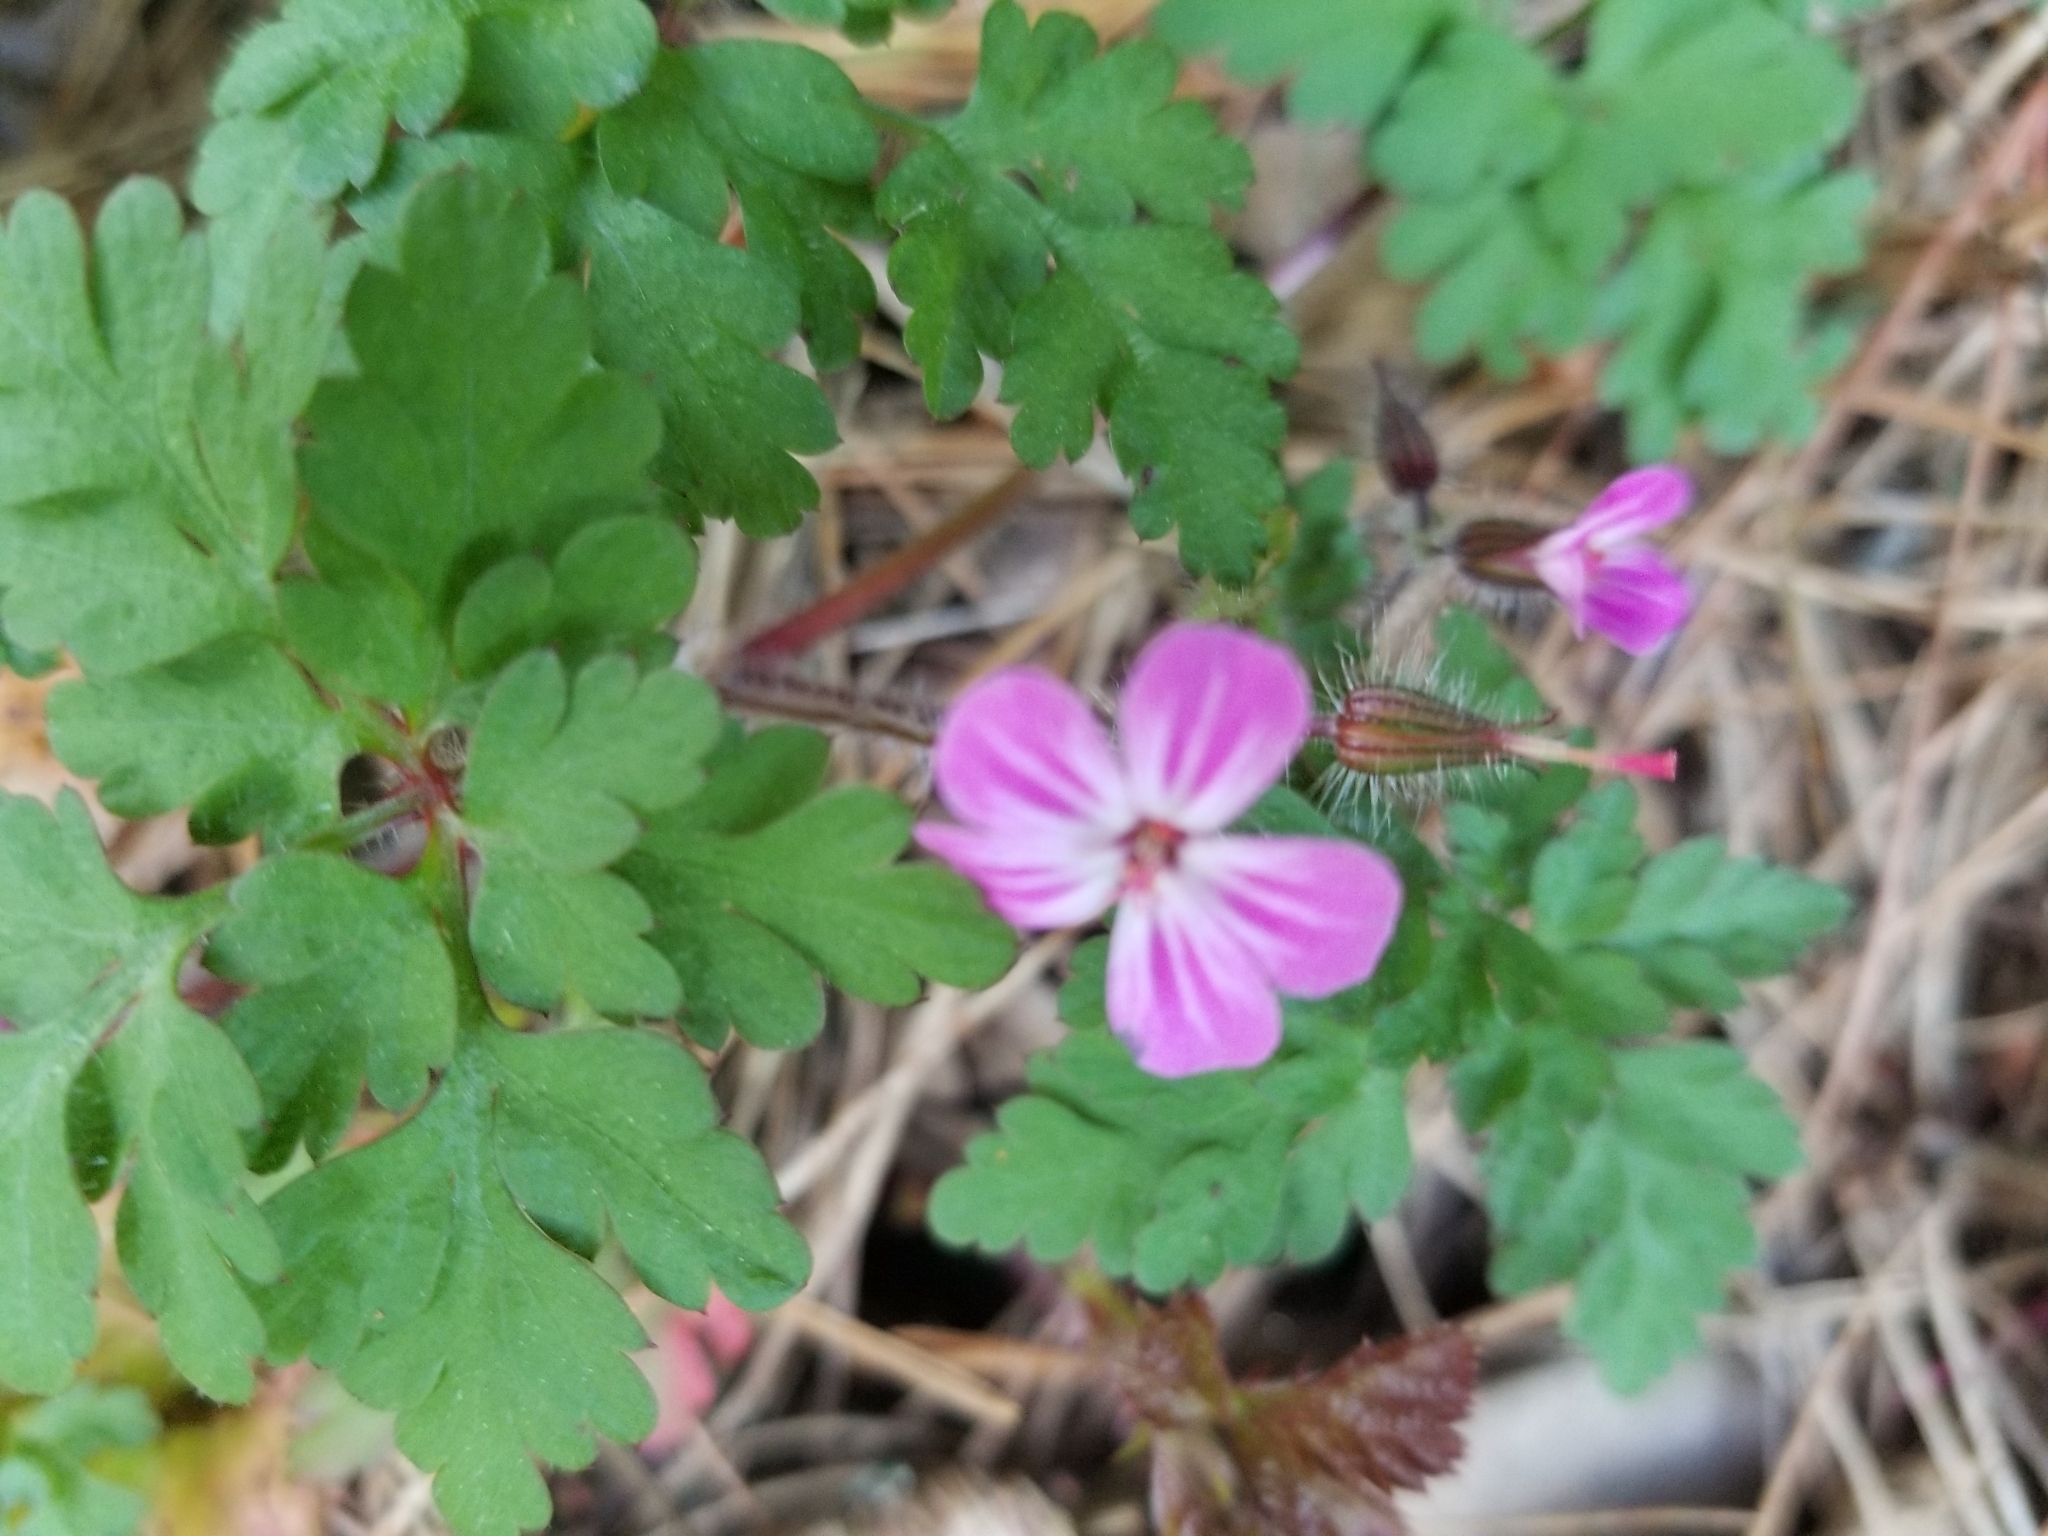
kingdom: Plantae
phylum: Tracheophyta
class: Magnoliopsida
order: Geraniales
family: Geraniaceae
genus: Geranium
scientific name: Geranium robertianum
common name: Herb-robert
